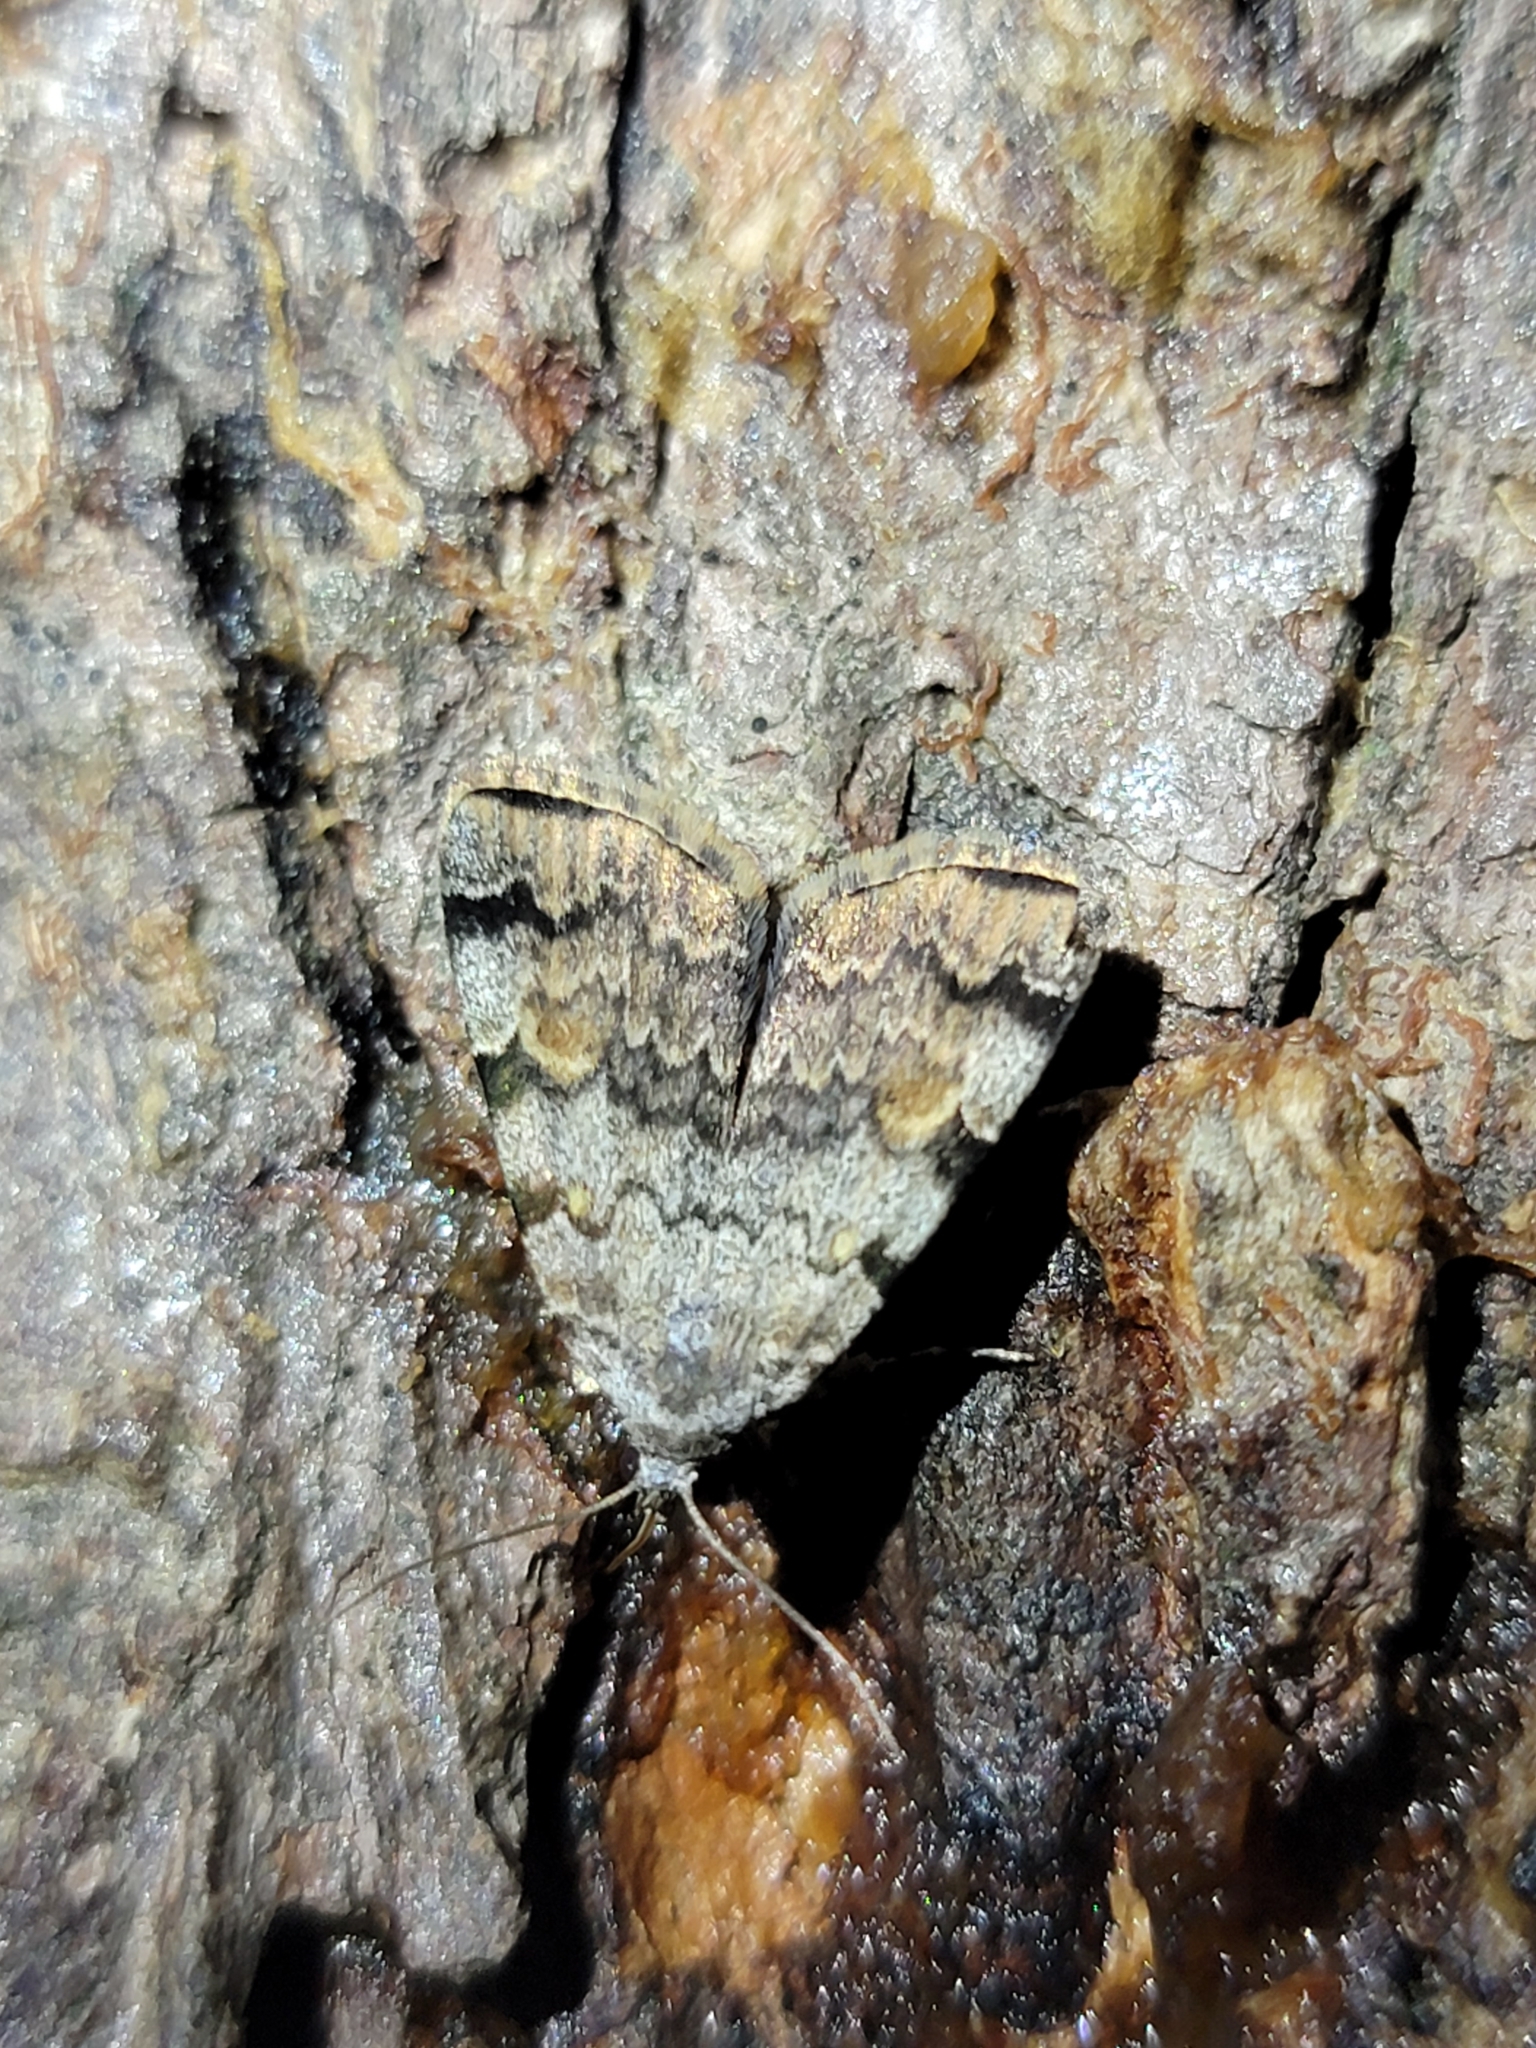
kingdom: Animalia
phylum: Arthropoda
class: Insecta
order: Lepidoptera
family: Erebidae
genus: Idia
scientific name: Idia americalis
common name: American idia moth
